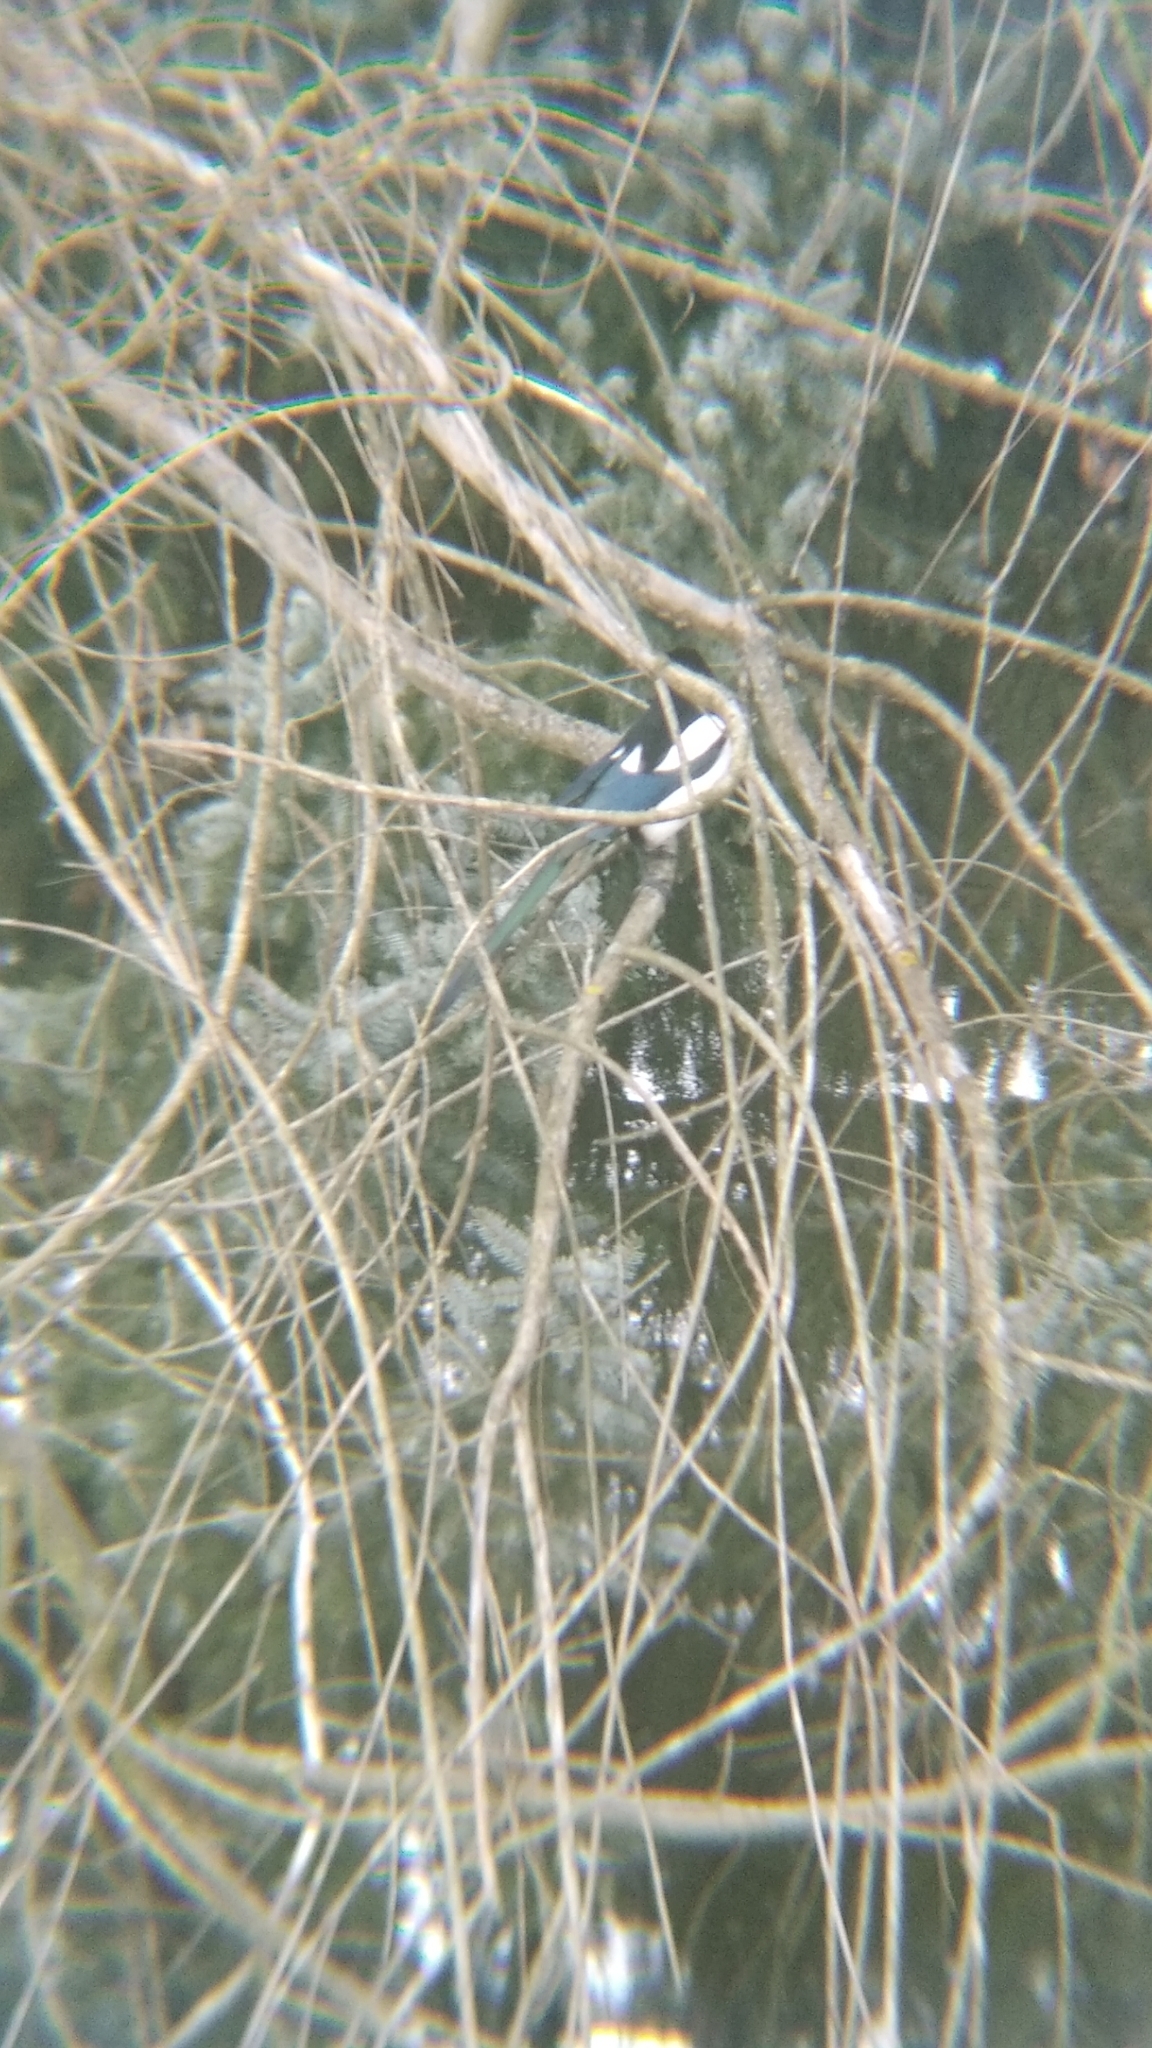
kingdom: Animalia
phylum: Chordata
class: Aves
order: Passeriformes
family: Corvidae
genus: Pica
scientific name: Pica pica
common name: Eurasian magpie
